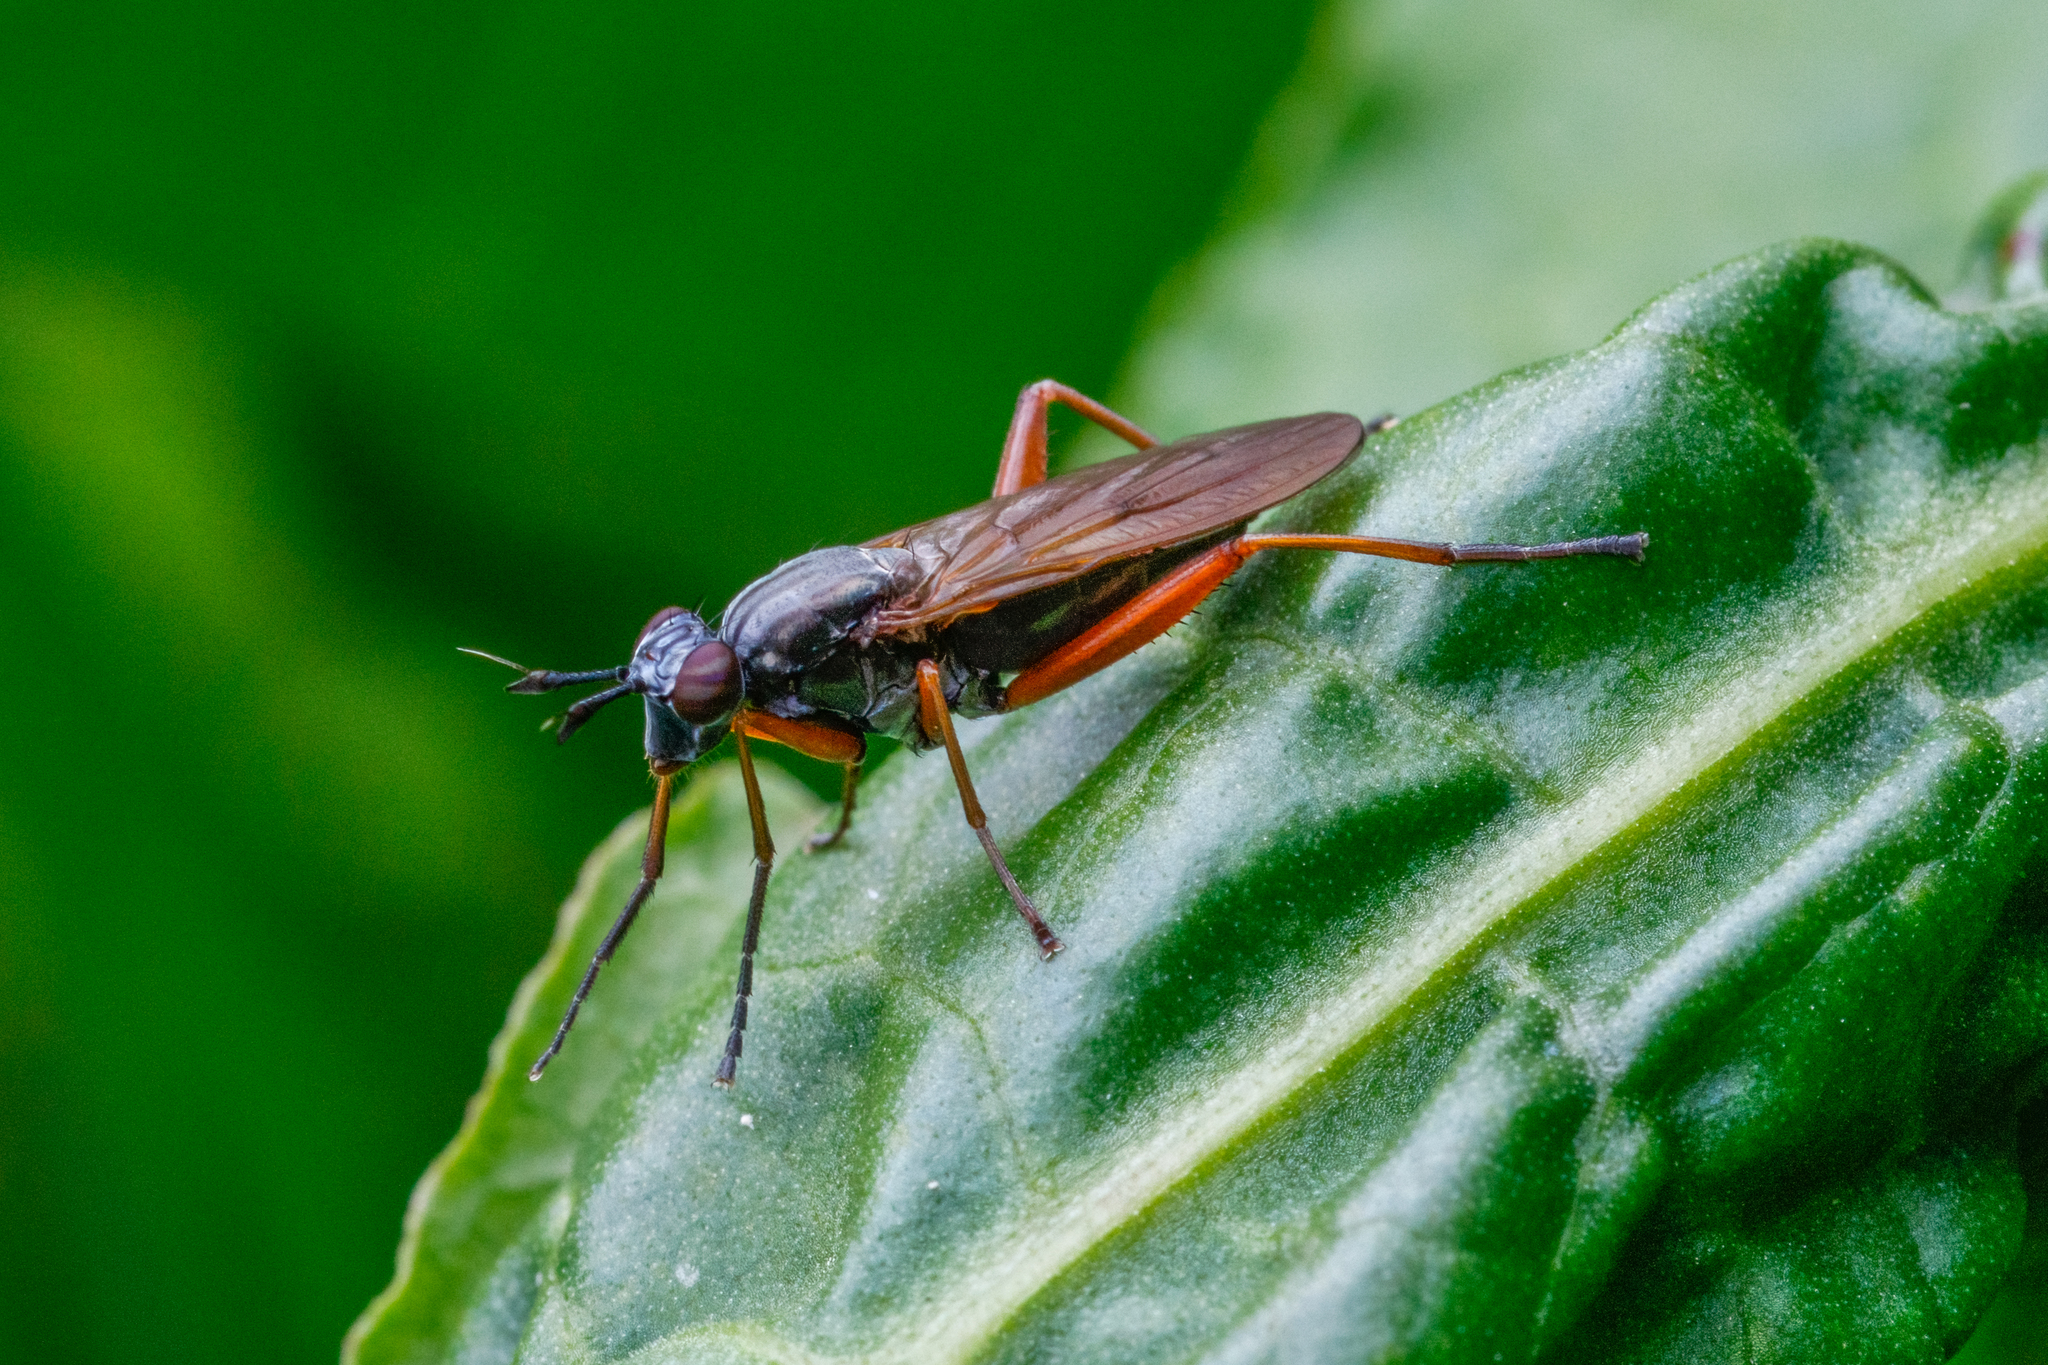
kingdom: Animalia
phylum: Arthropoda
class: Insecta
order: Diptera
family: Sciomyzidae
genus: Sepedon
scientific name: Sepedon sphegea
